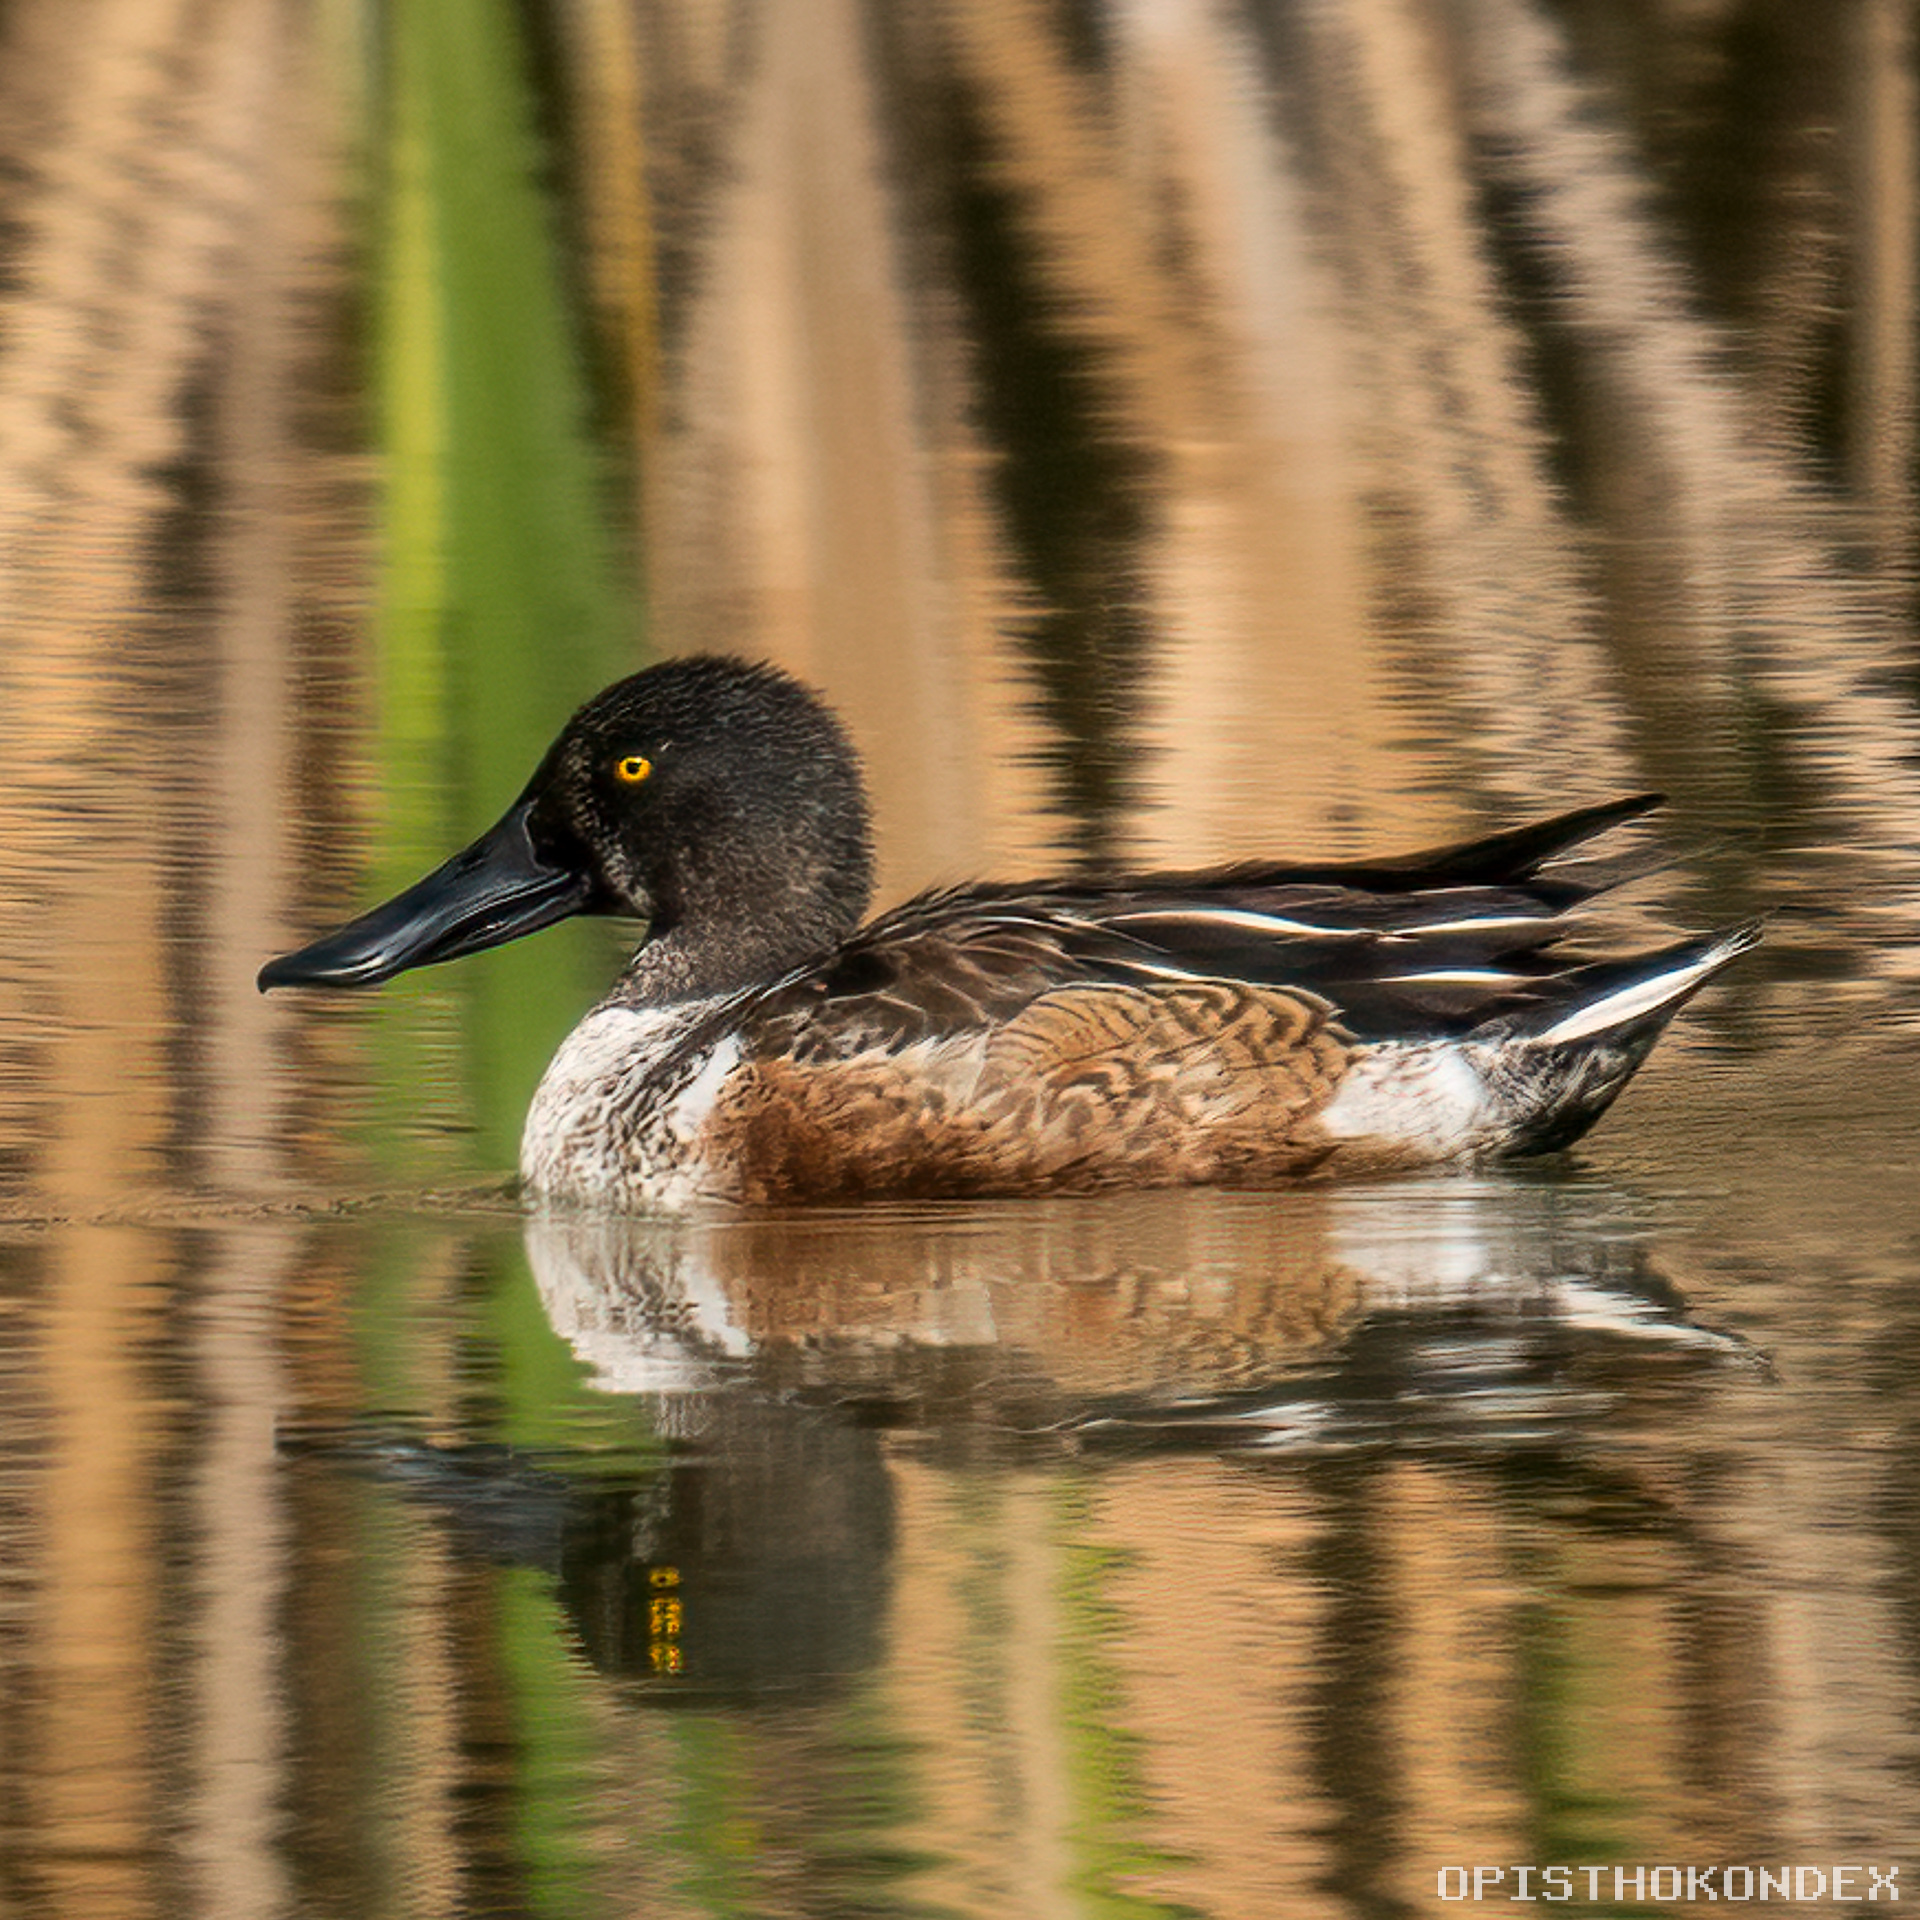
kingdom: Animalia
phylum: Chordata
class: Aves
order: Anseriformes
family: Anatidae
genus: Spatula
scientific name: Spatula clypeata
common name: Northern shoveler
